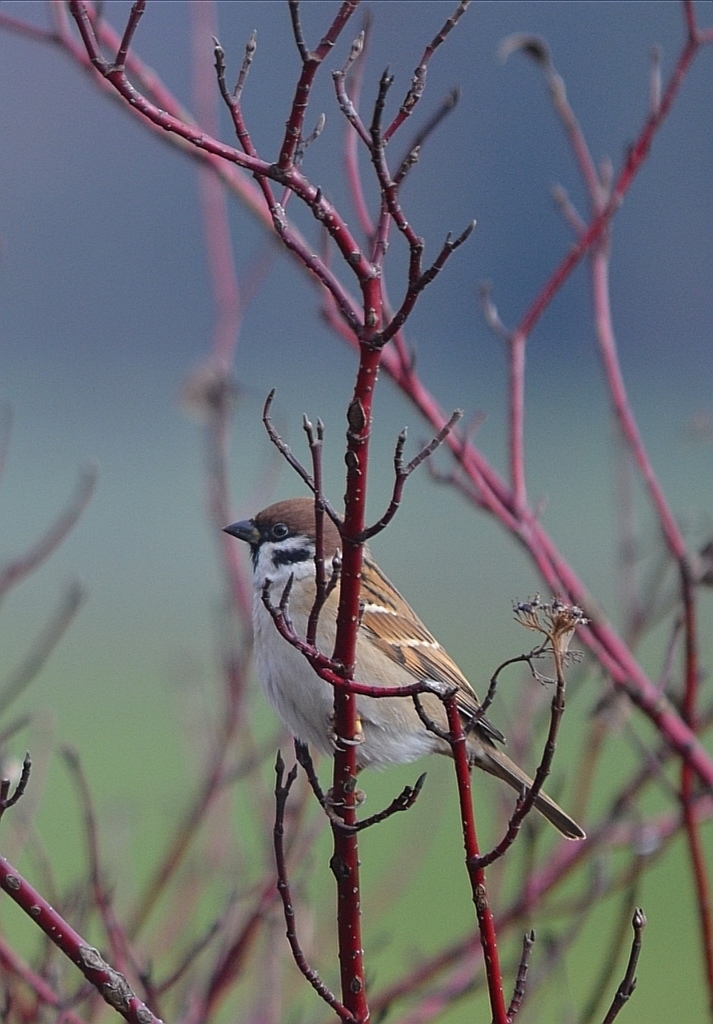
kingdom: Animalia
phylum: Chordata
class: Aves
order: Passeriformes
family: Passeridae
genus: Passer
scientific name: Passer montanus
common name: Eurasian tree sparrow
